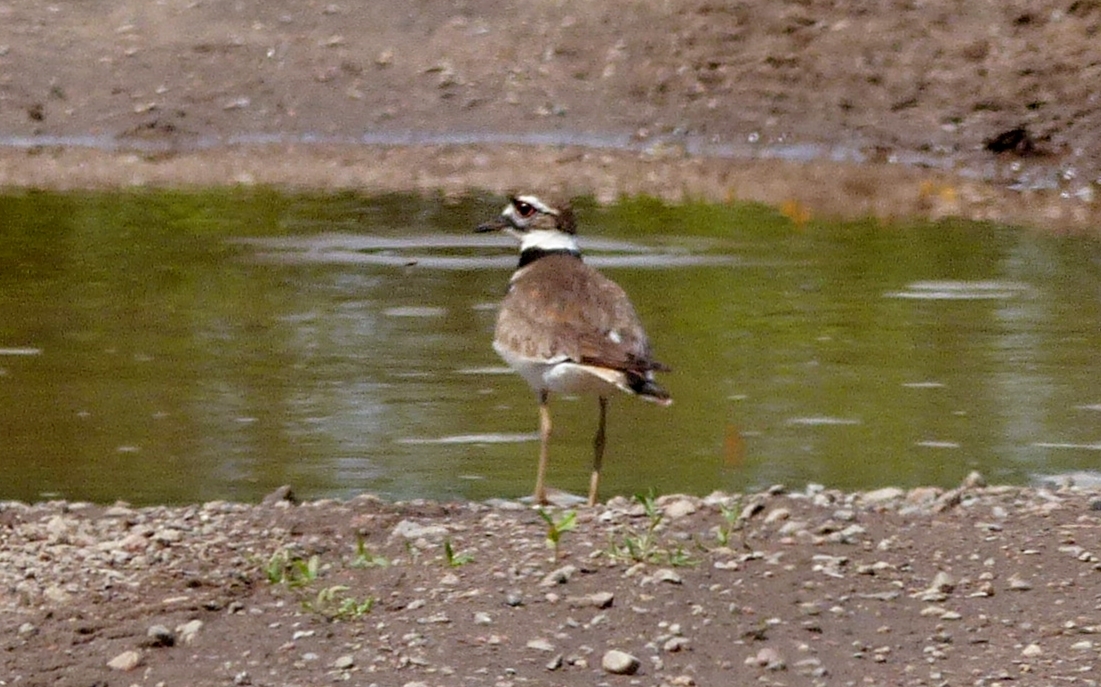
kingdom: Animalia
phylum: Chordata
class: Aves
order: Charadriiformes
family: Charadriidae
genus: Charadrius
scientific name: Charadrius vociferus
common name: Killdeer
